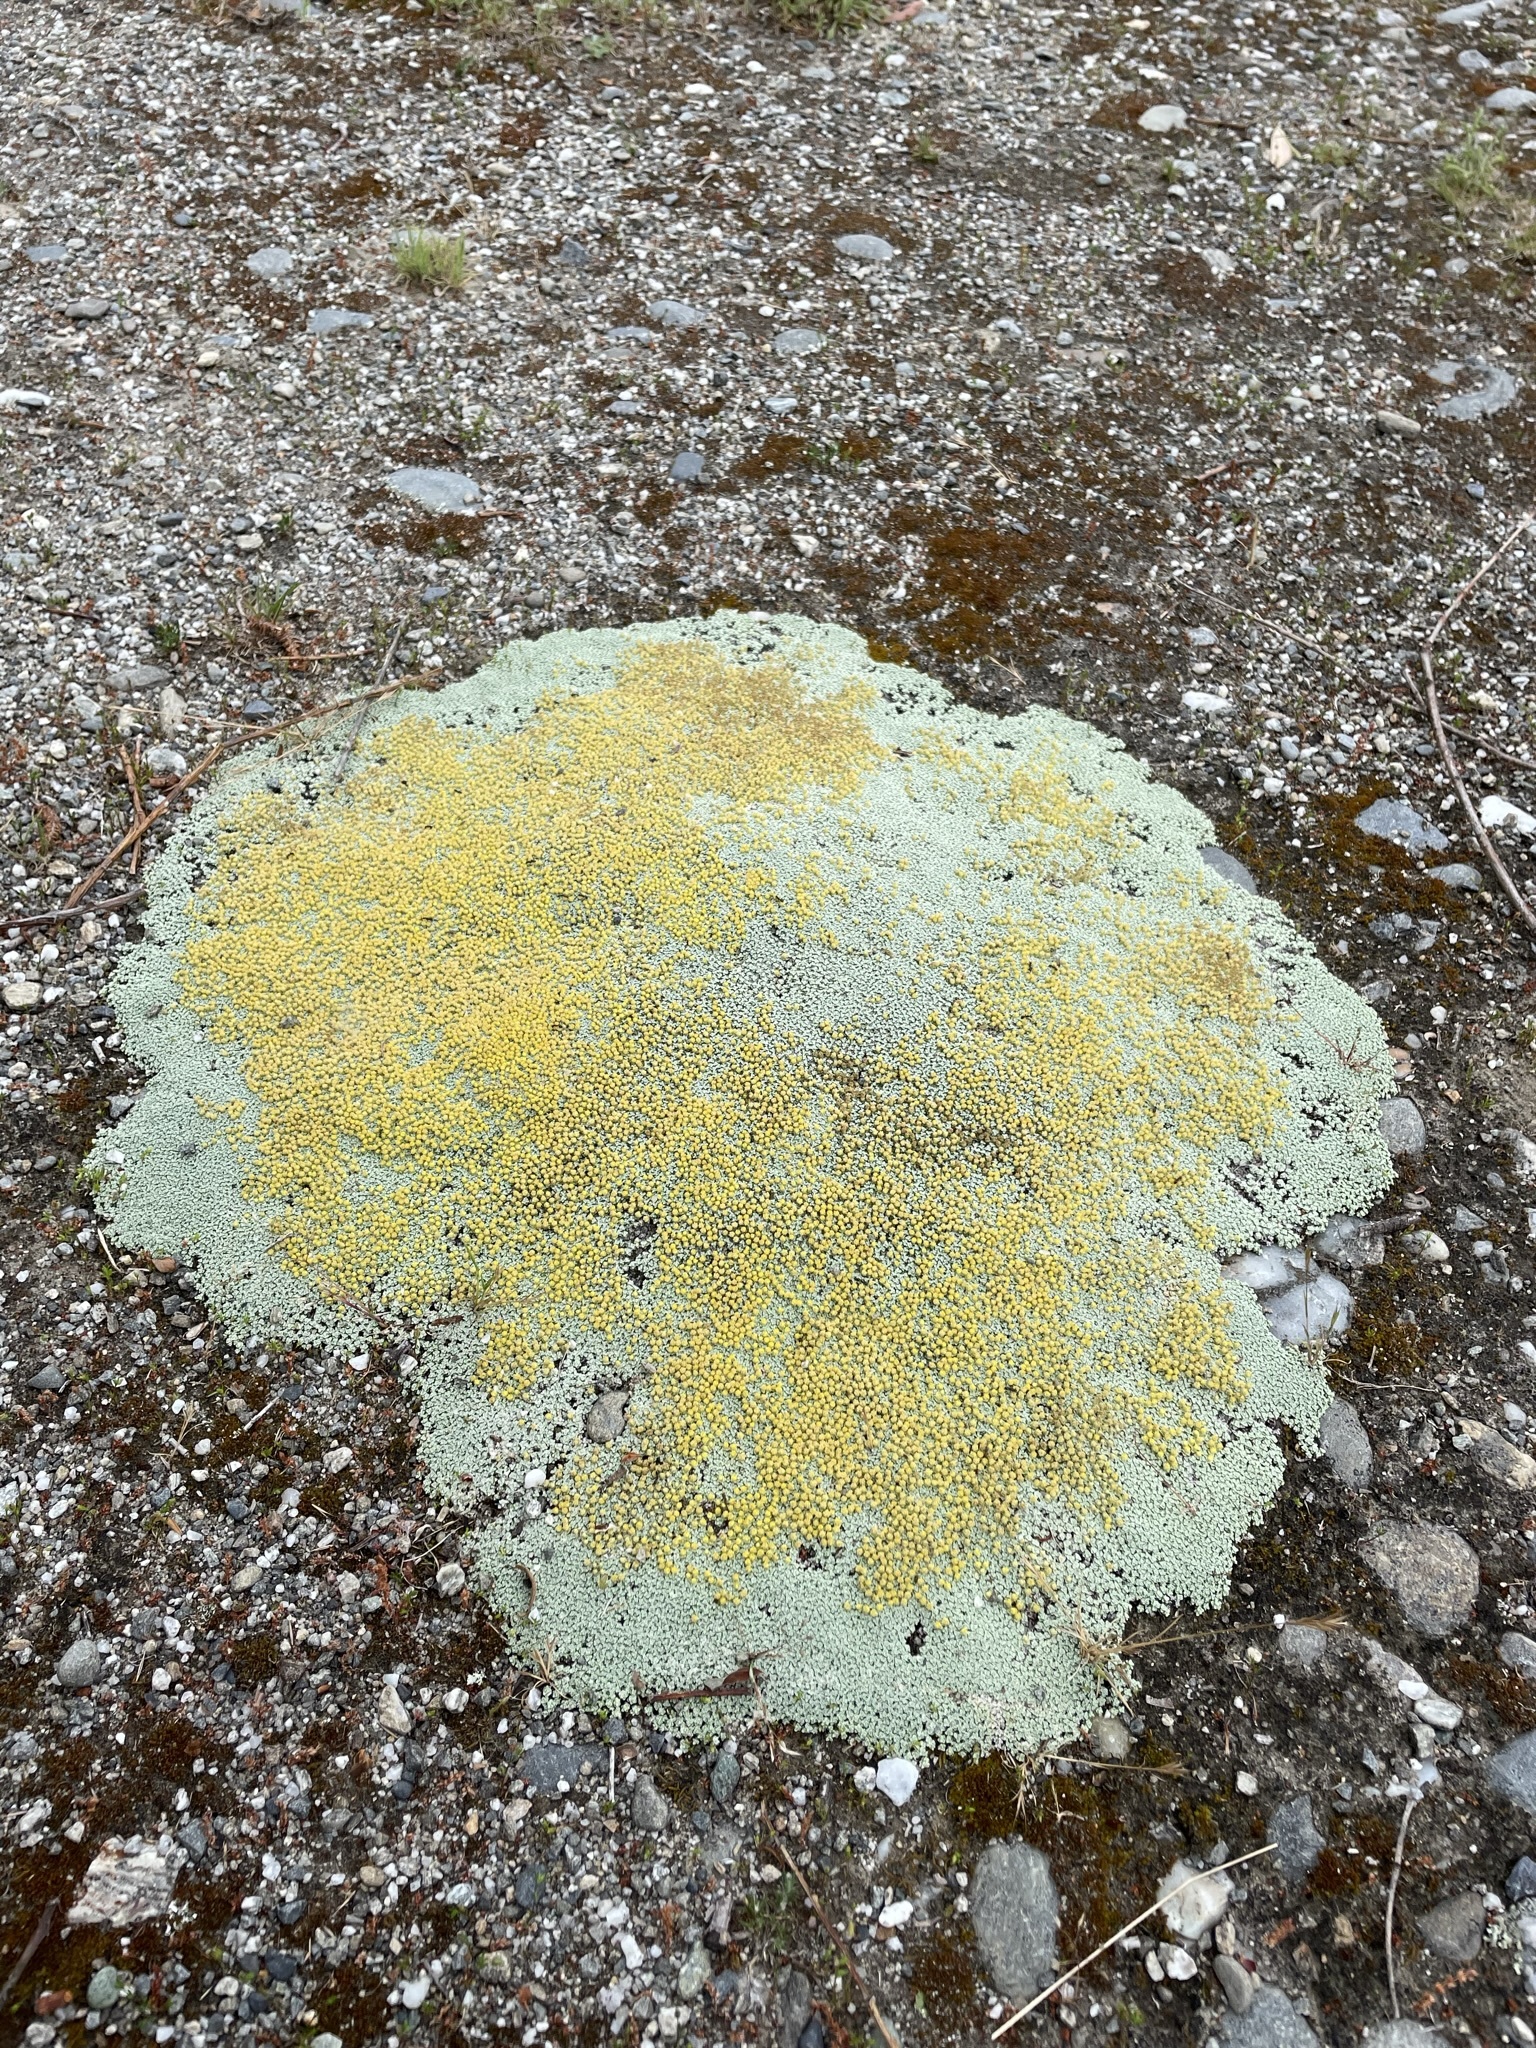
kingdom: Plantae
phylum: Tracheophyta
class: Magnoliopsida
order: Asterales
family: Asteraceae
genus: Raoulia
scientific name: Raoulia australis
